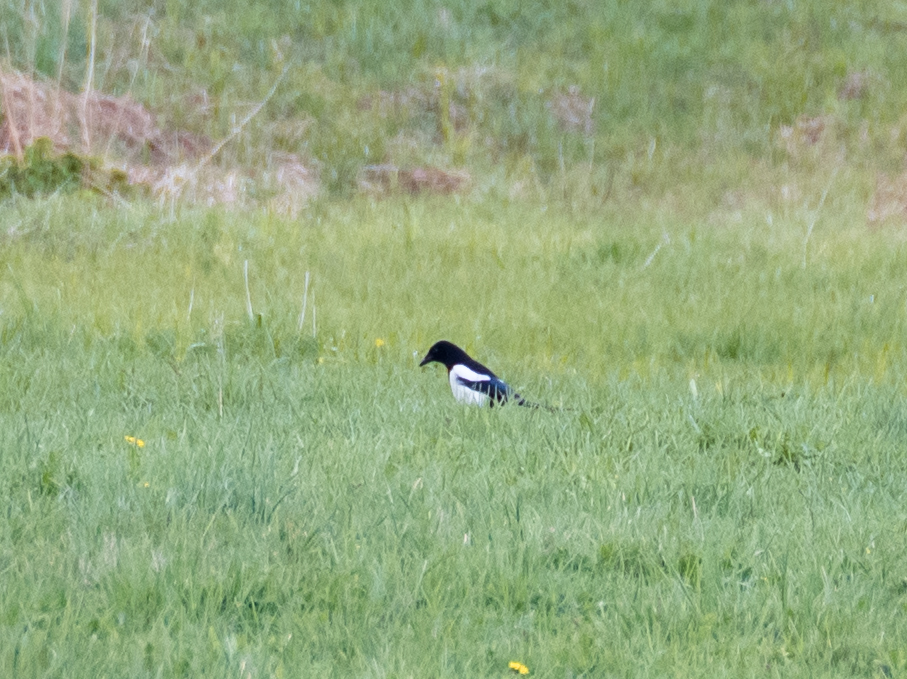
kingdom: Animalia
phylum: Chordata
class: Aves
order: Passeriformes
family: Corvidae
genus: Pica
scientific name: Pica pica
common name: Eurasian magpie
